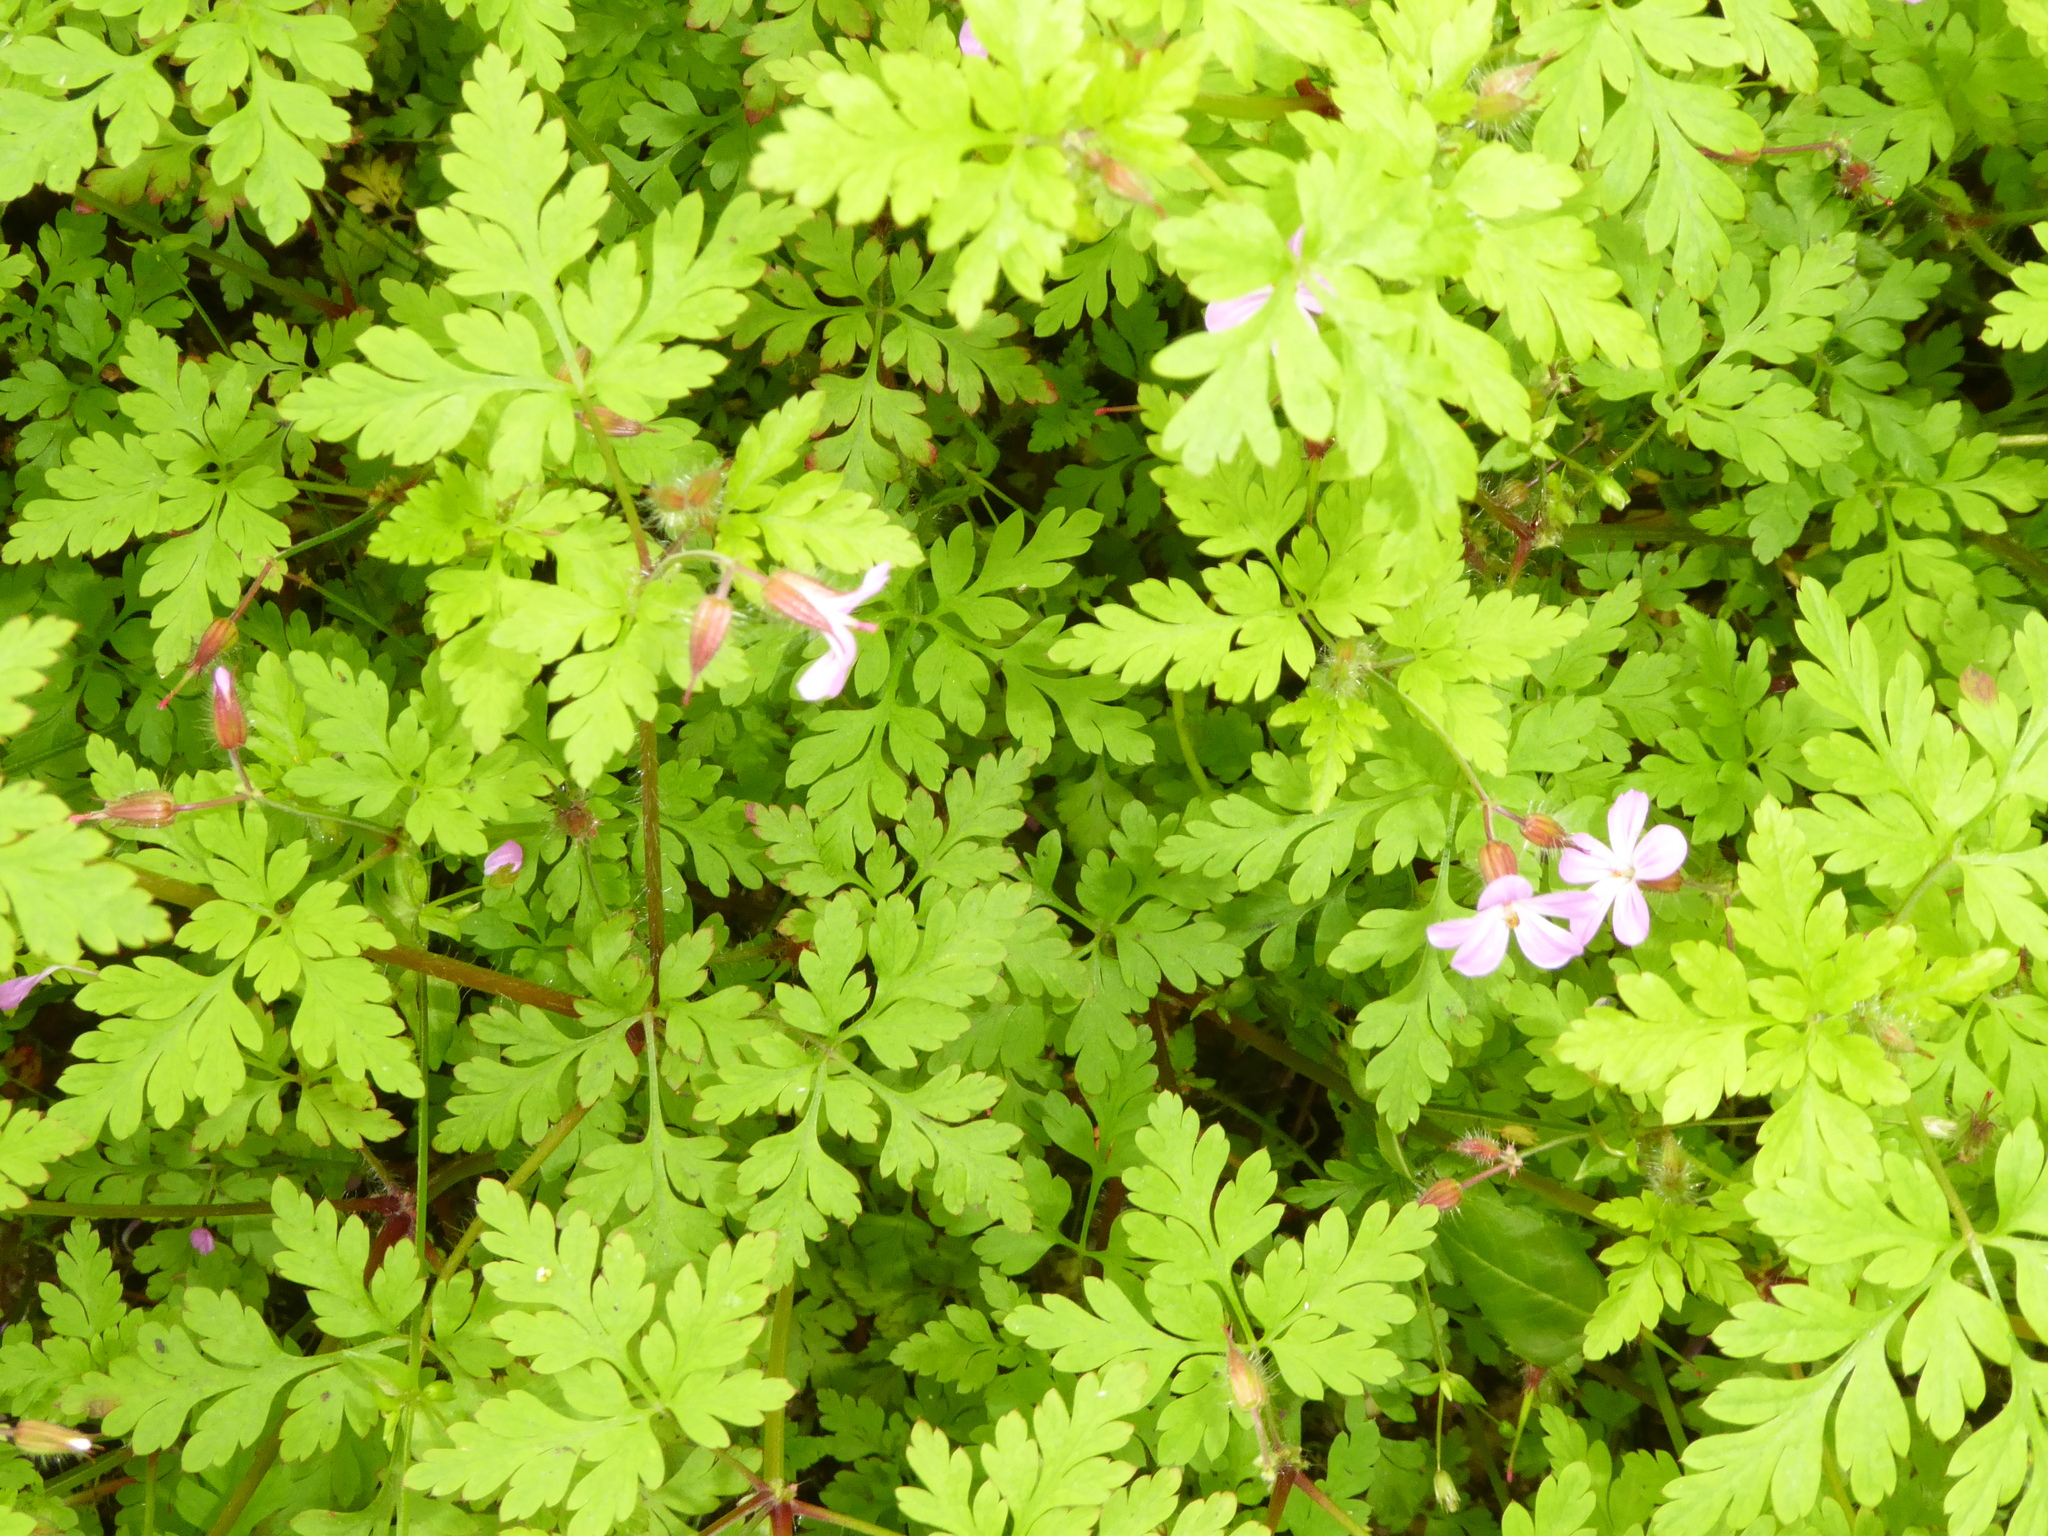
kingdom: Plantae
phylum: Tracheophyta
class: Magnoliopsida
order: Geraniales
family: Geraniaceae
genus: Geranium
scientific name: Geranium robertianum
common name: Herb-robert
